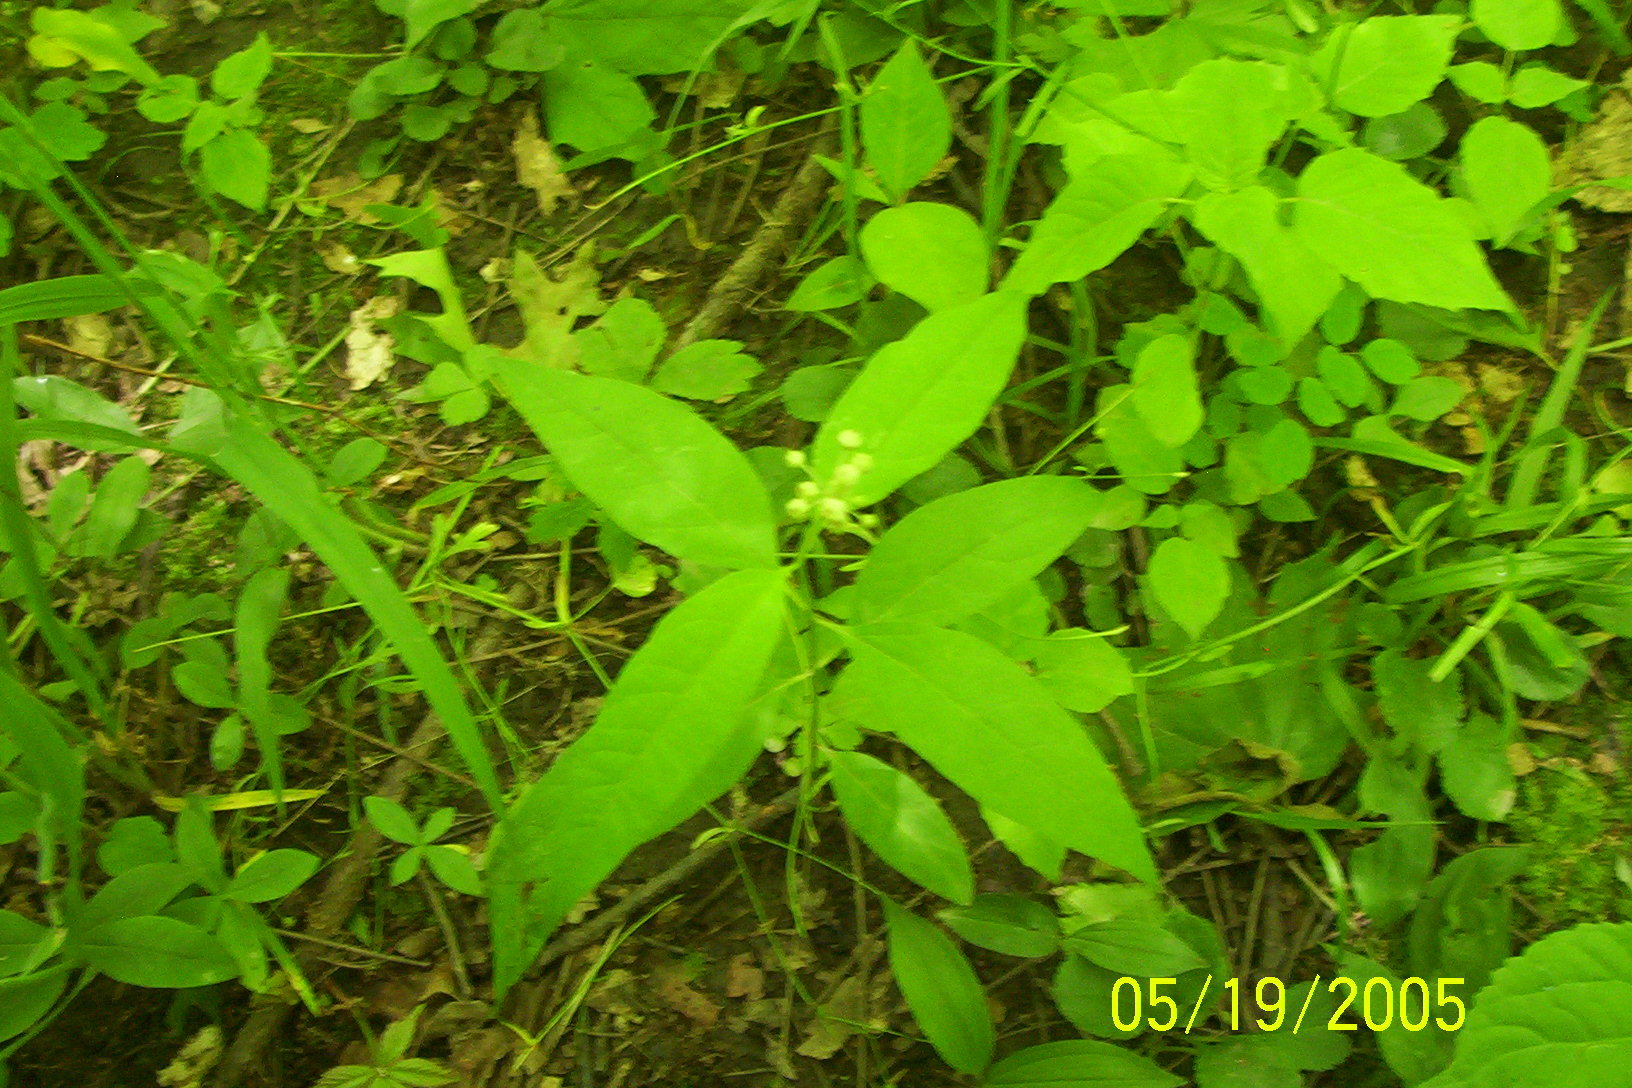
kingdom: Plantae
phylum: Tracheophyta
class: Magnoliopsida
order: Gentianales
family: Apocynaceae
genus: Asclepias
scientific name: Asclepias quadrifolia
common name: Whorled milkweed
